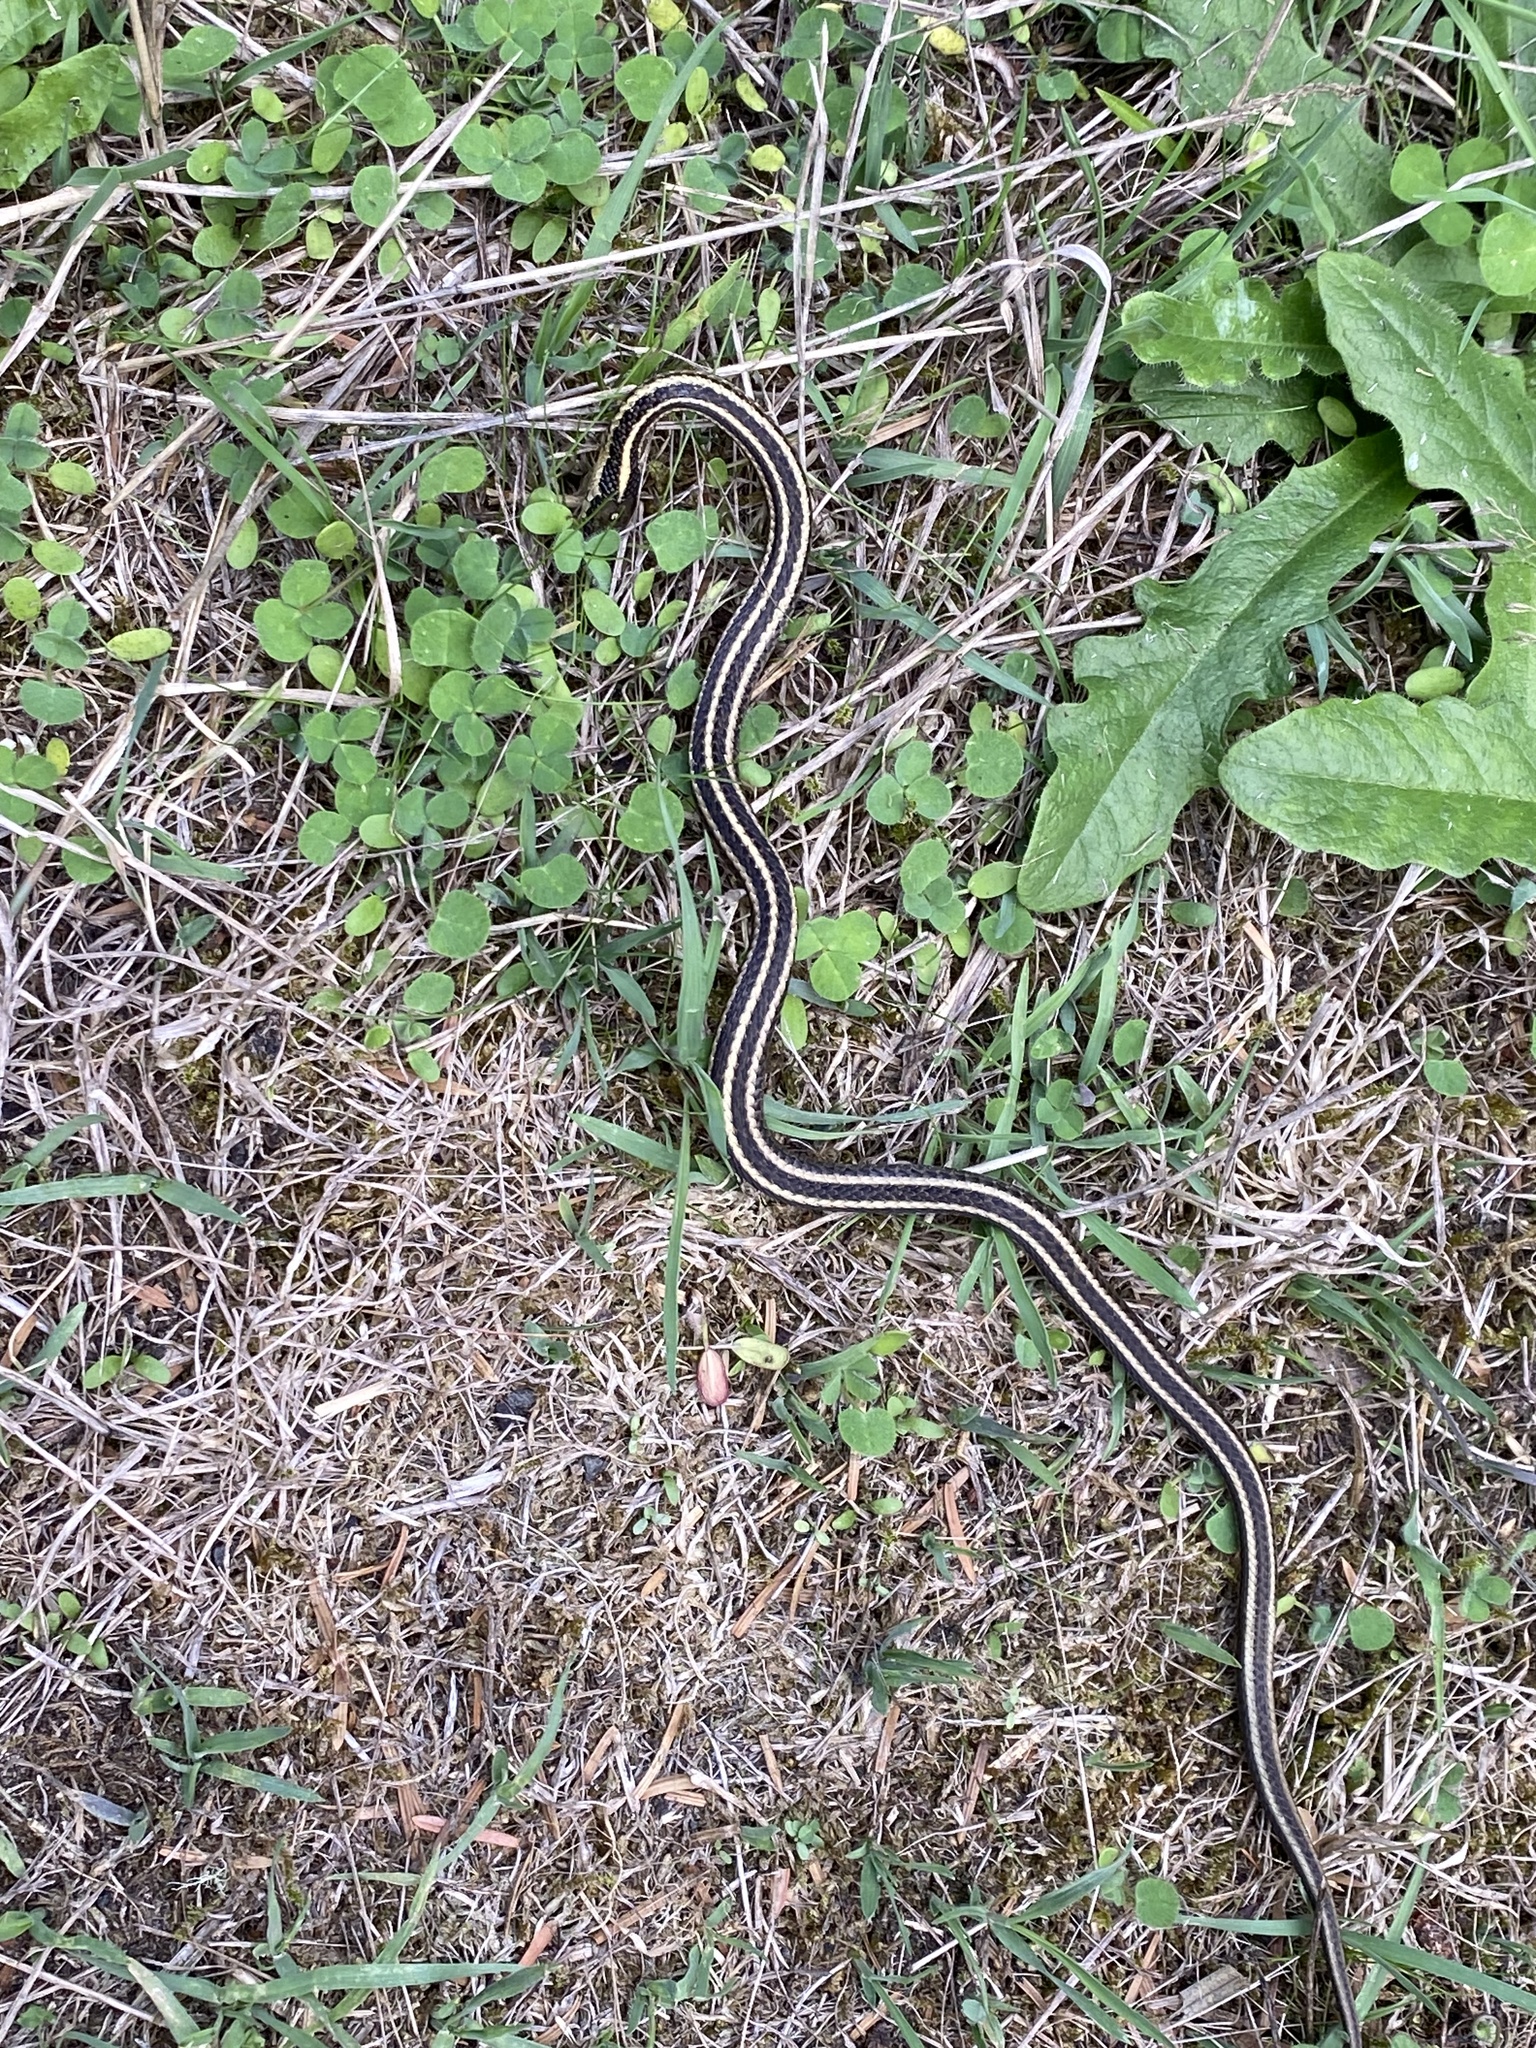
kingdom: Animalia
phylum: Chordata
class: Squamata
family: Colubridae
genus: Thamnophis
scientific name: Thamnophis ordinoides
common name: Northwestern garter snake
